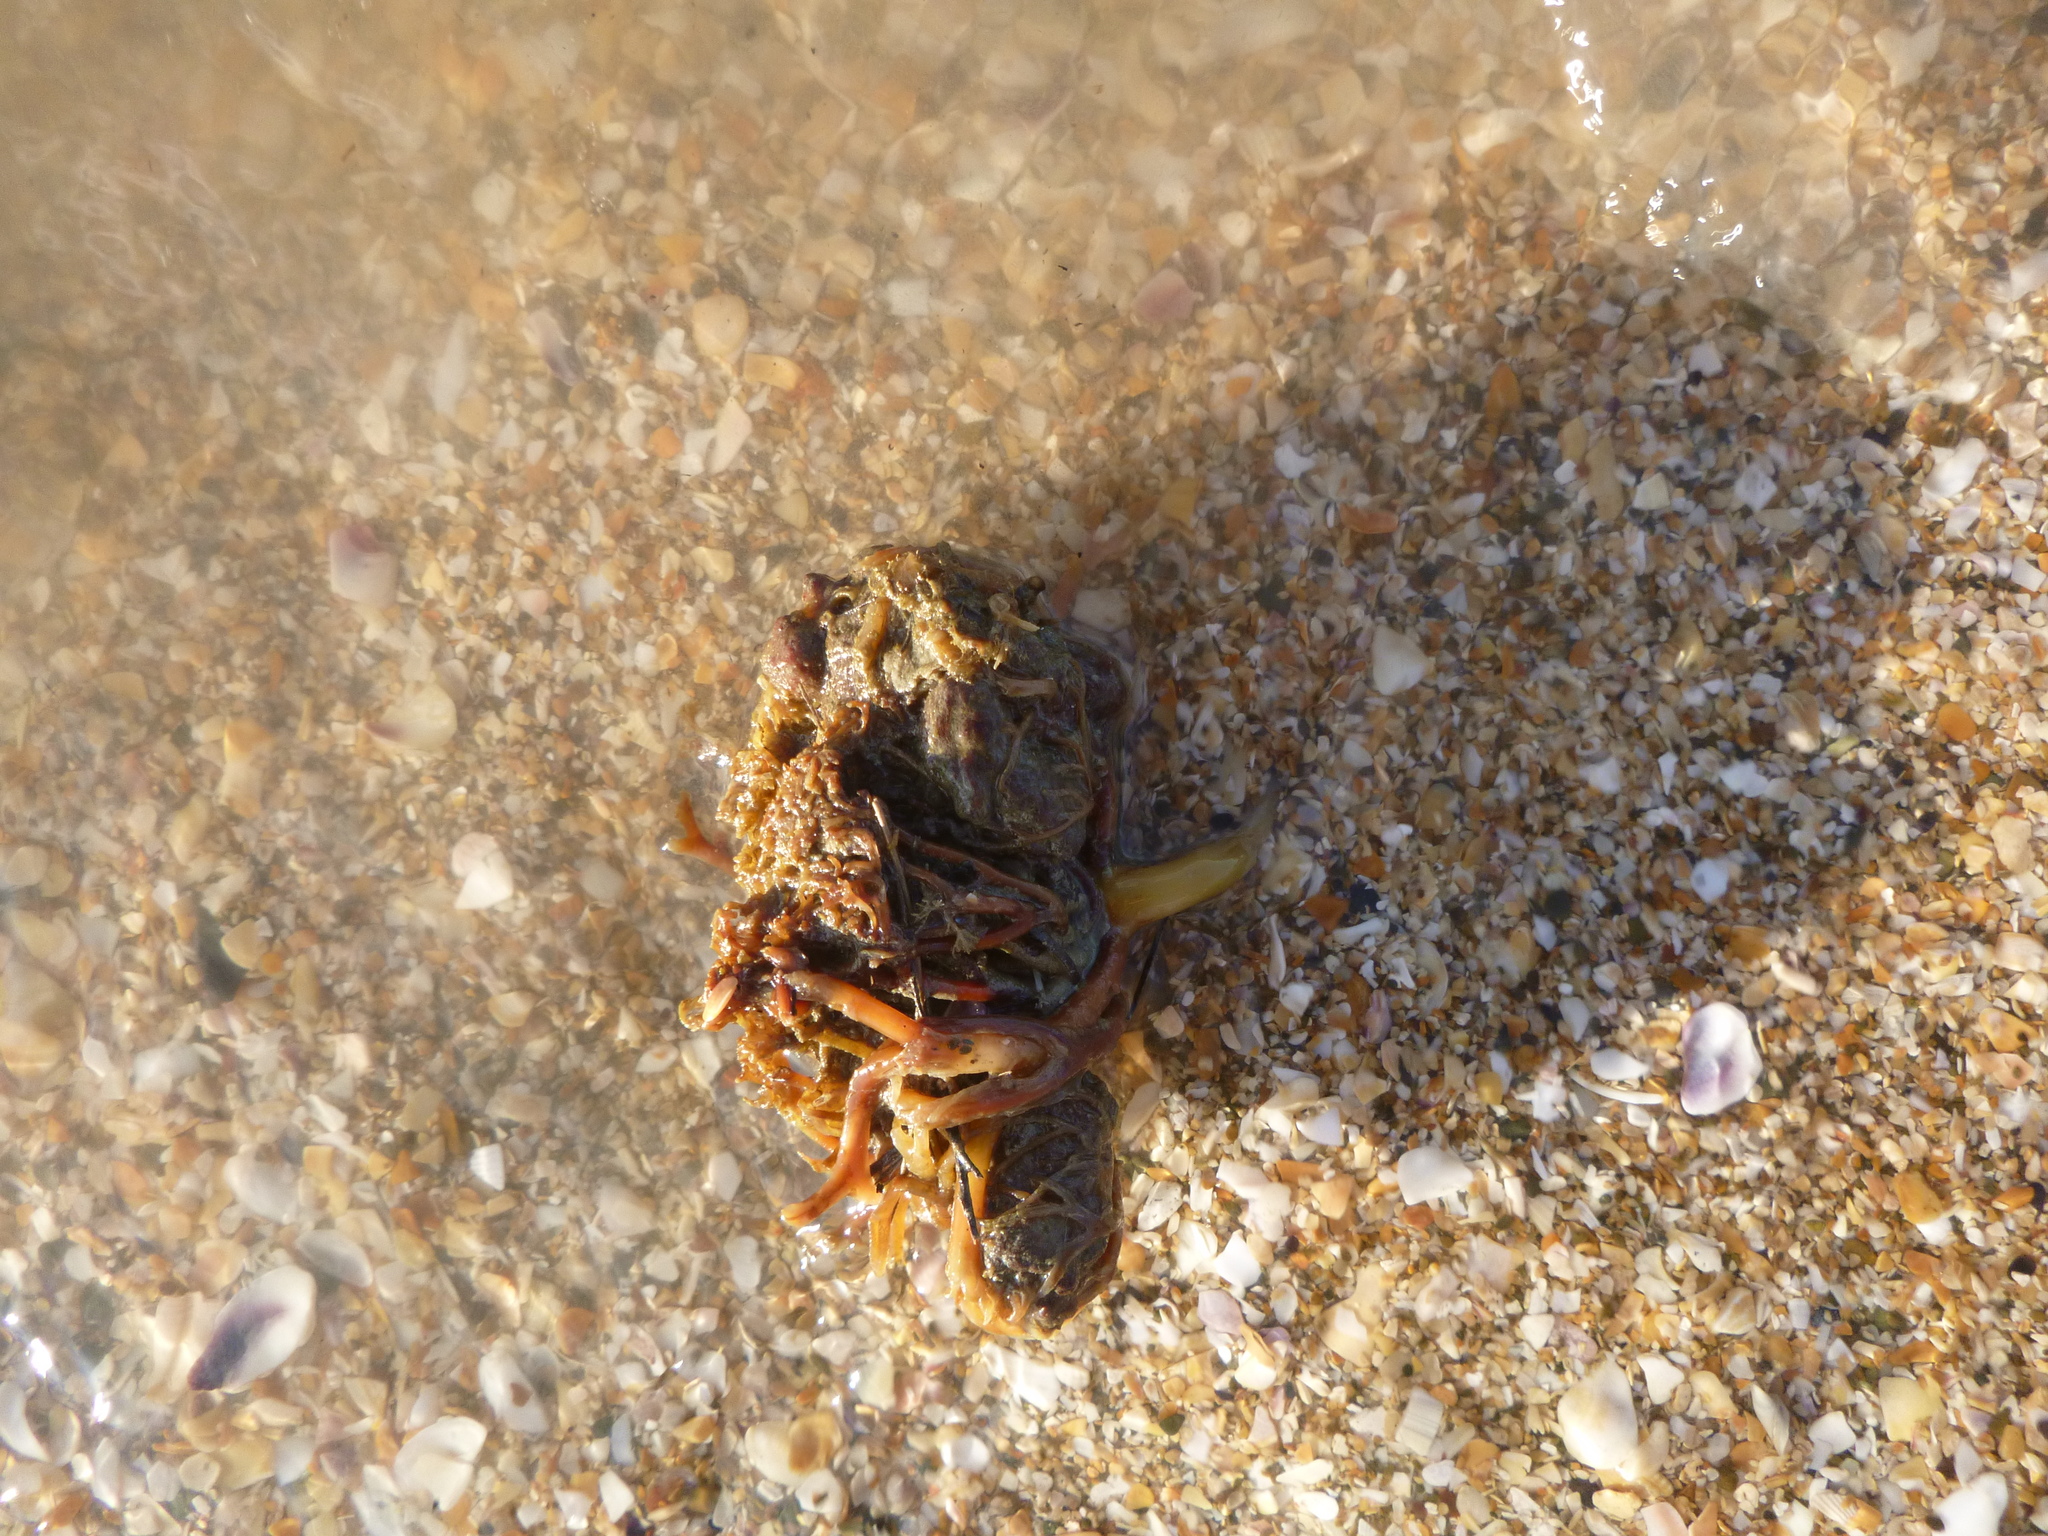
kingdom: Chromista
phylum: Ochrophyta
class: Phaeophyceae
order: Laminariales
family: Lessoniaceae
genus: Ecklonia
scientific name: Ecklonia radiata
